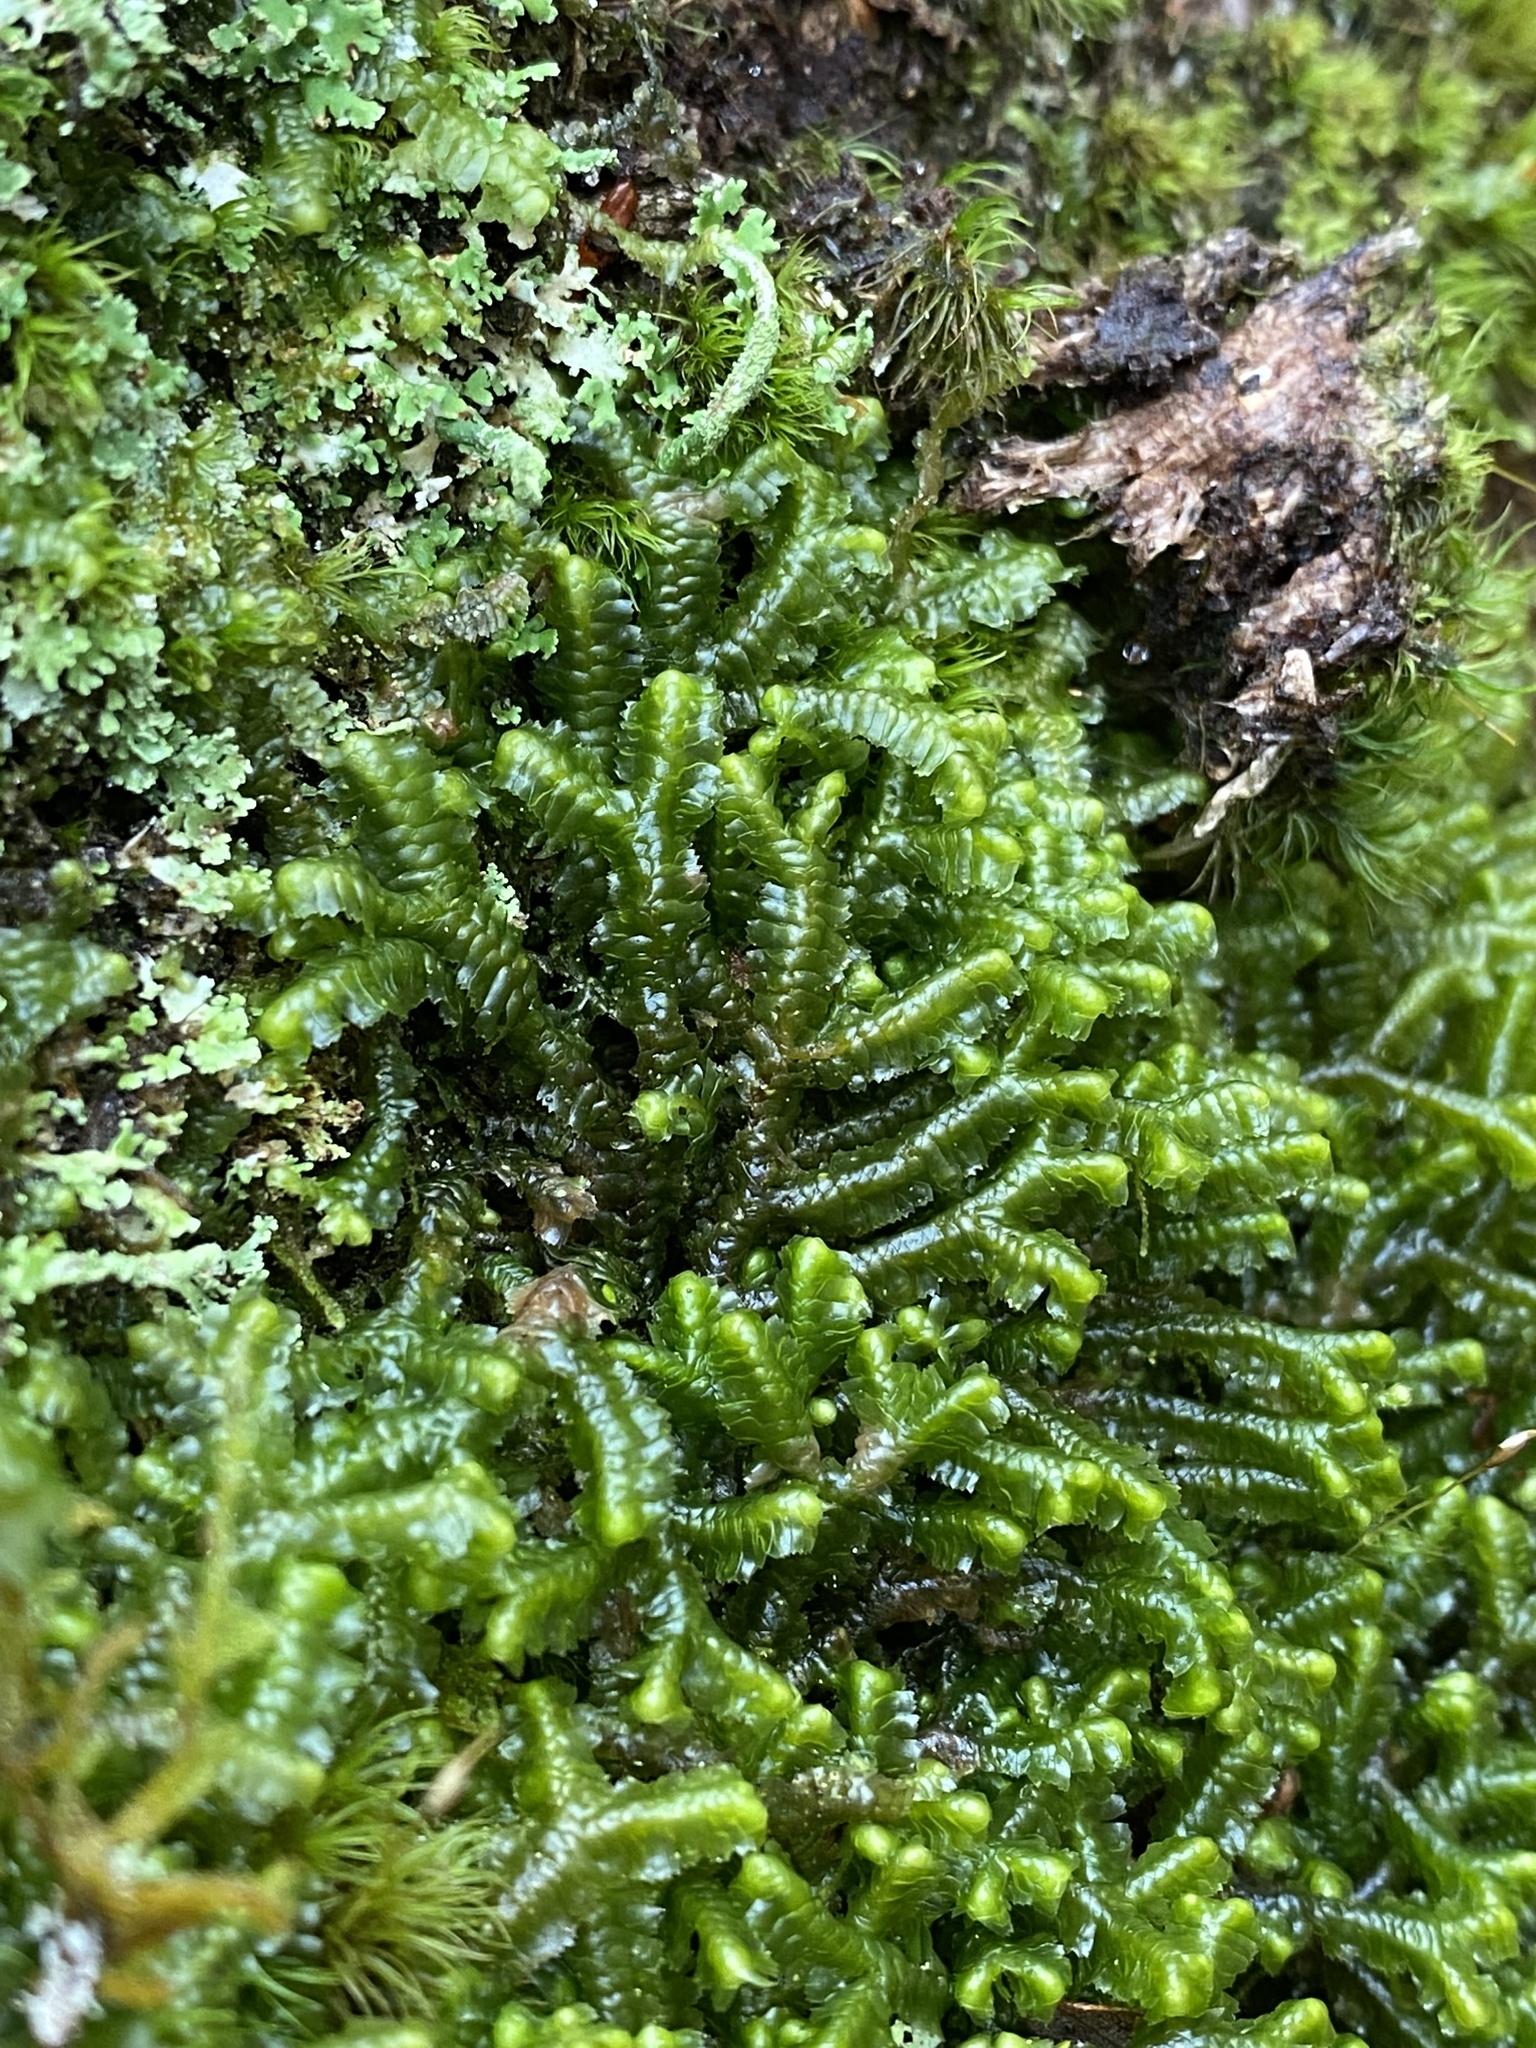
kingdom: Plantae
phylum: Marchantiophyta
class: Jungermanniopsida
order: Jungermanniales
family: Lepidoziaceae
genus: Bazzania
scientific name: Bazzania trilobata
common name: Three-lobed whipwort
